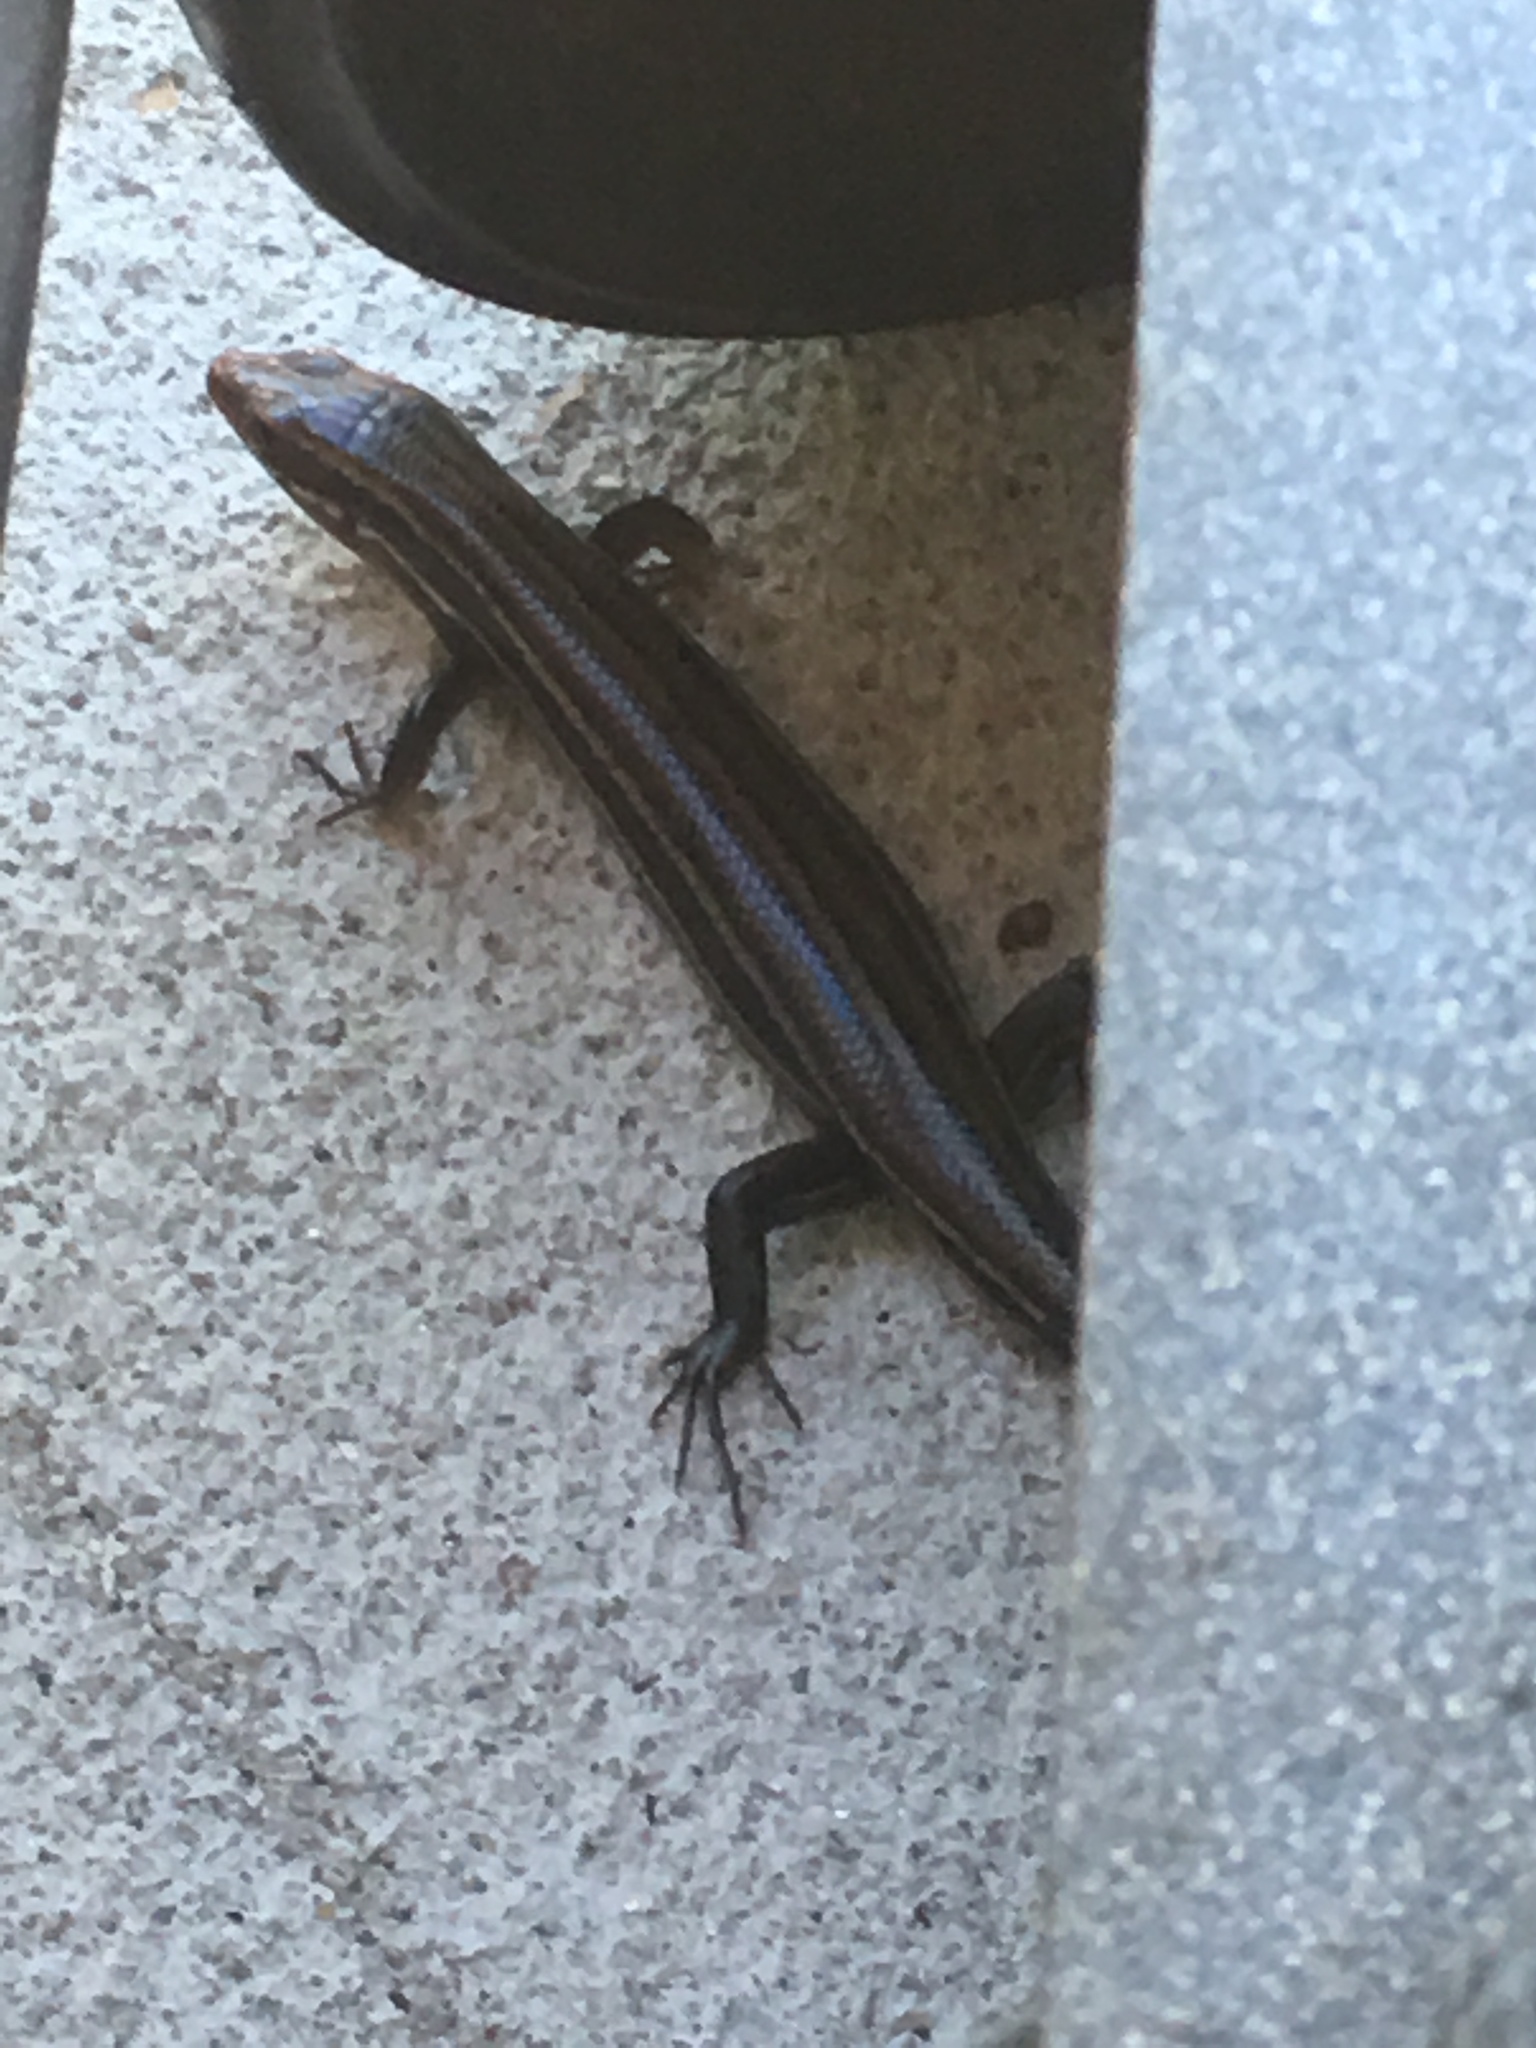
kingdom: Animalia
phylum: Chordata
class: Squamata
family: Scincidae
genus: Plestiodon
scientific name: Plestiodon inexpectatus
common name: Southeastern five-lined skink
